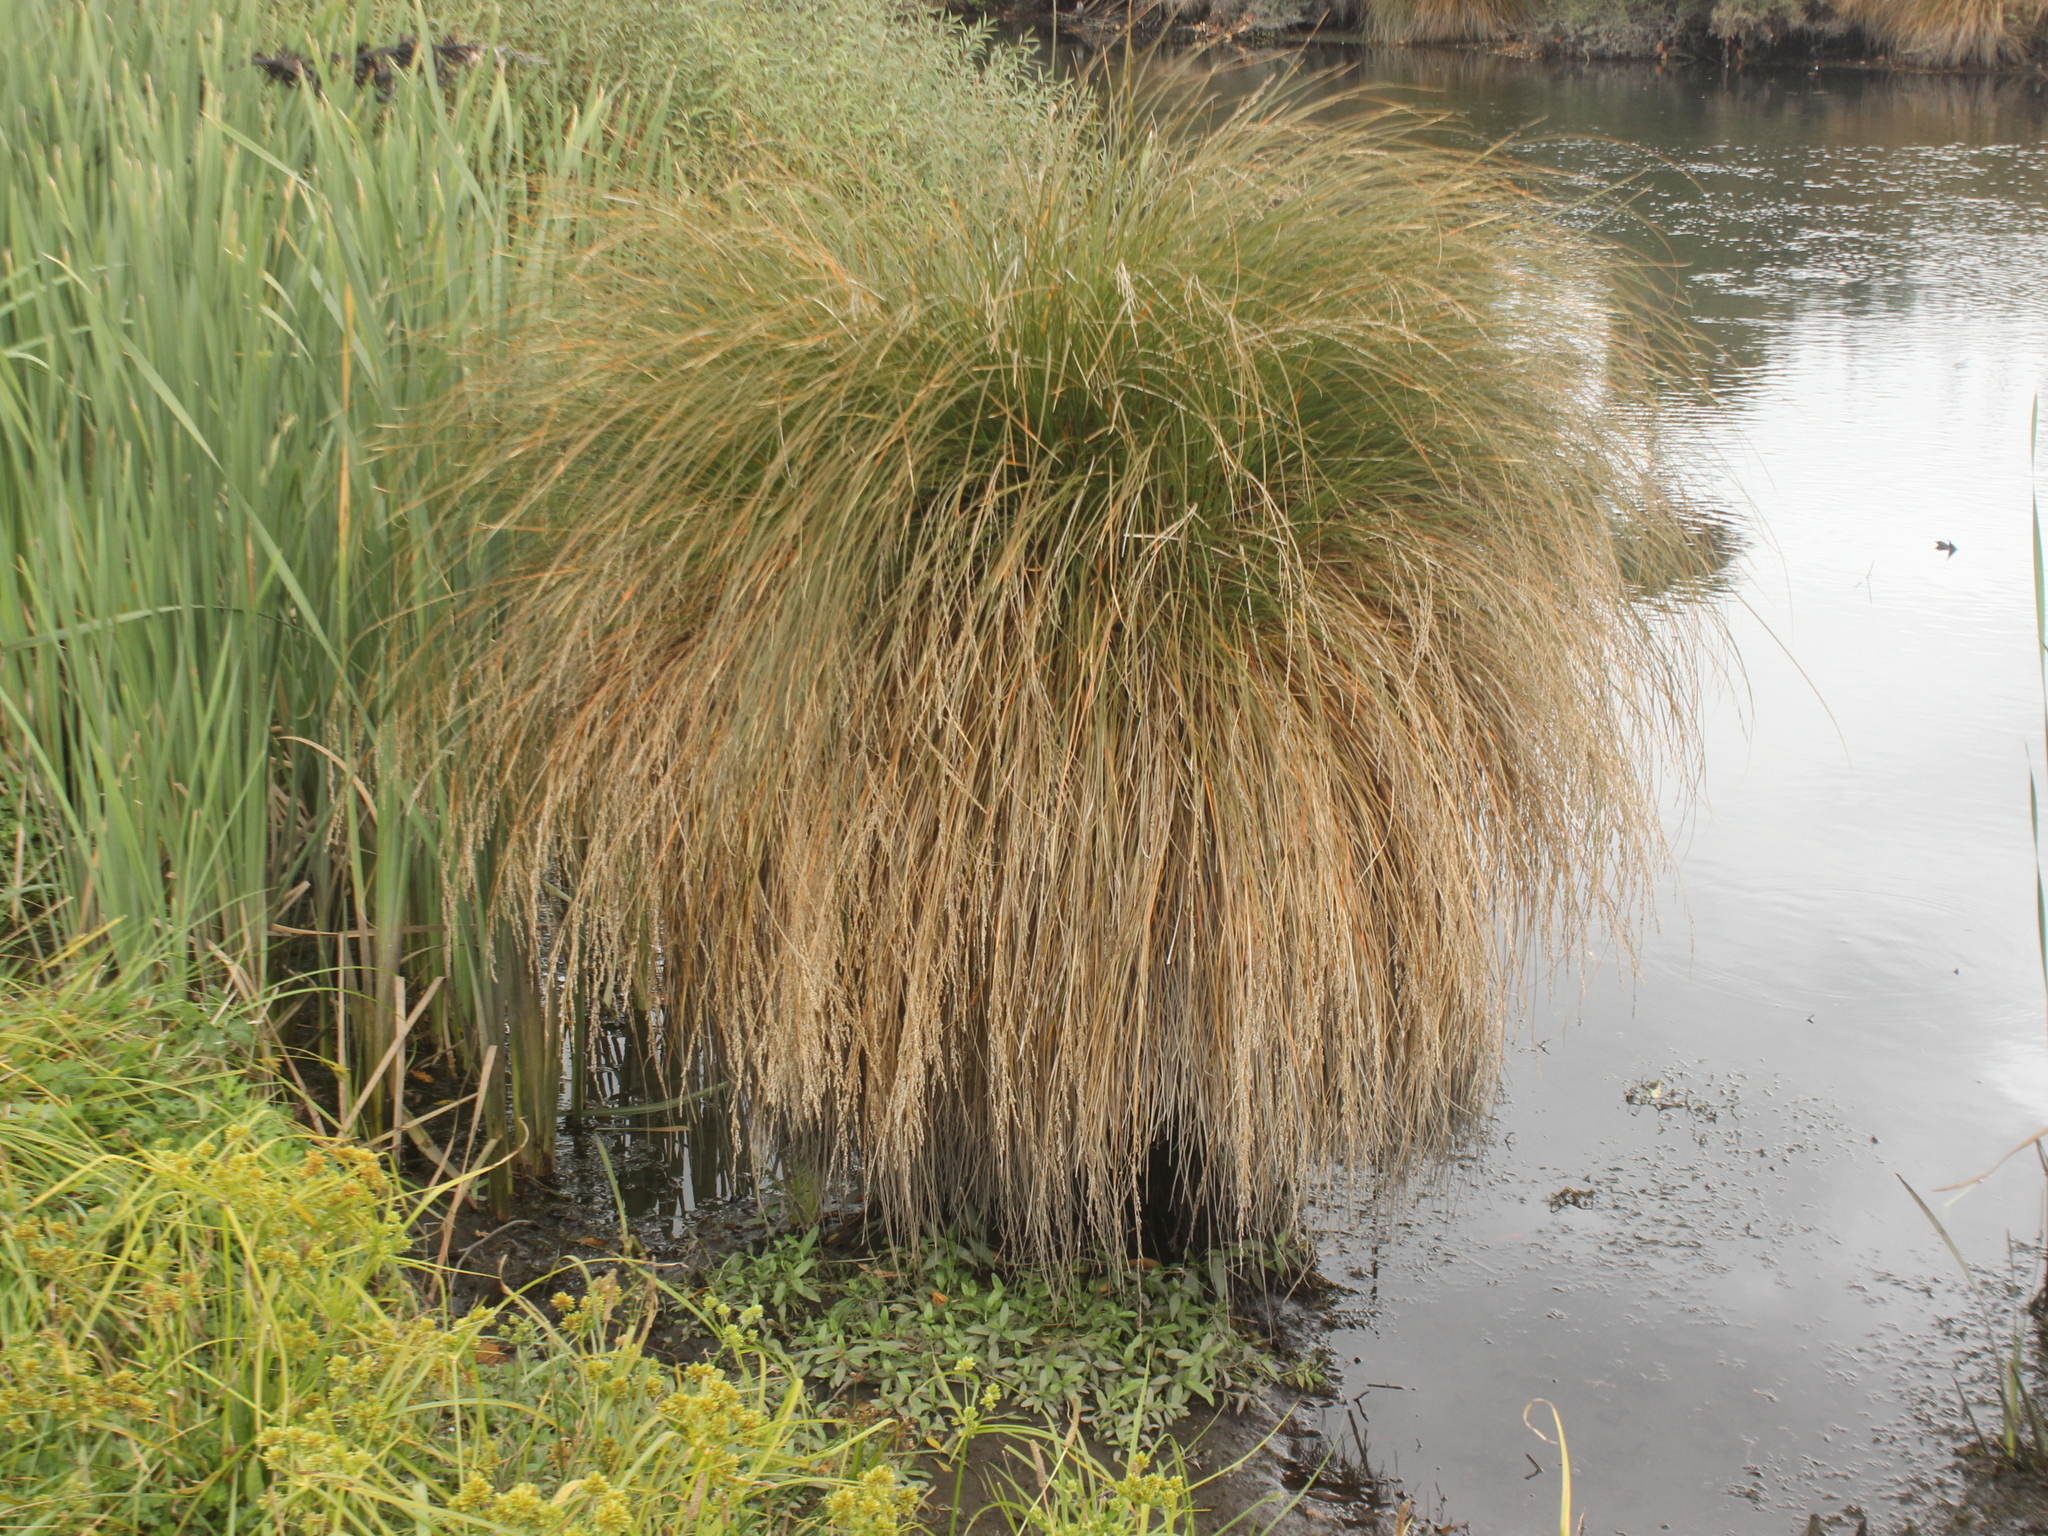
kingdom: Plantae
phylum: Tracheophyta
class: Liliopsida
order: Poales
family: Cyperaceae
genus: Carex
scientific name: Carex secta
